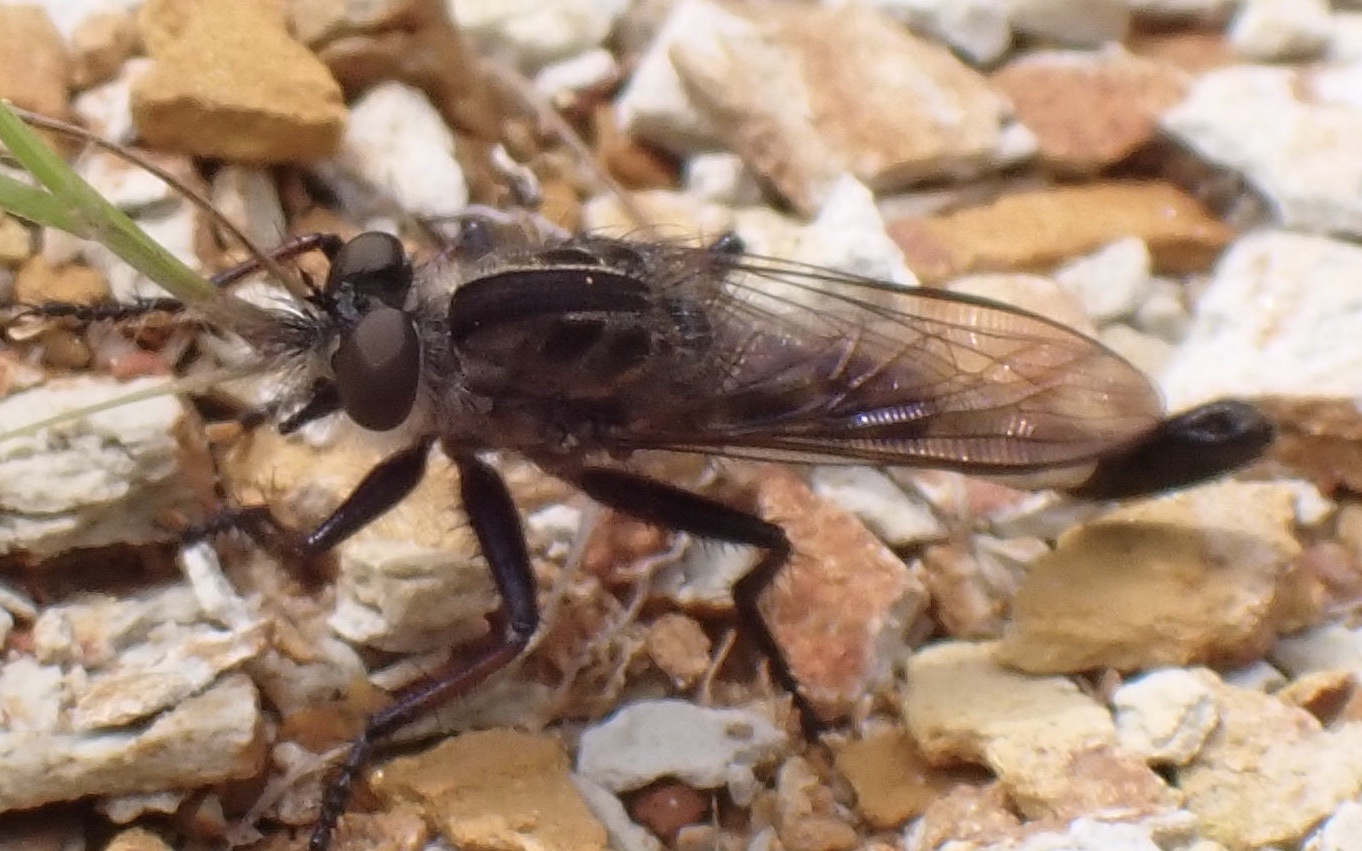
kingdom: Animalia
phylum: Arthropoda
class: Insecta
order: Diptera
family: Asilidae
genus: Efferia
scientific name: Efferia aestuans
